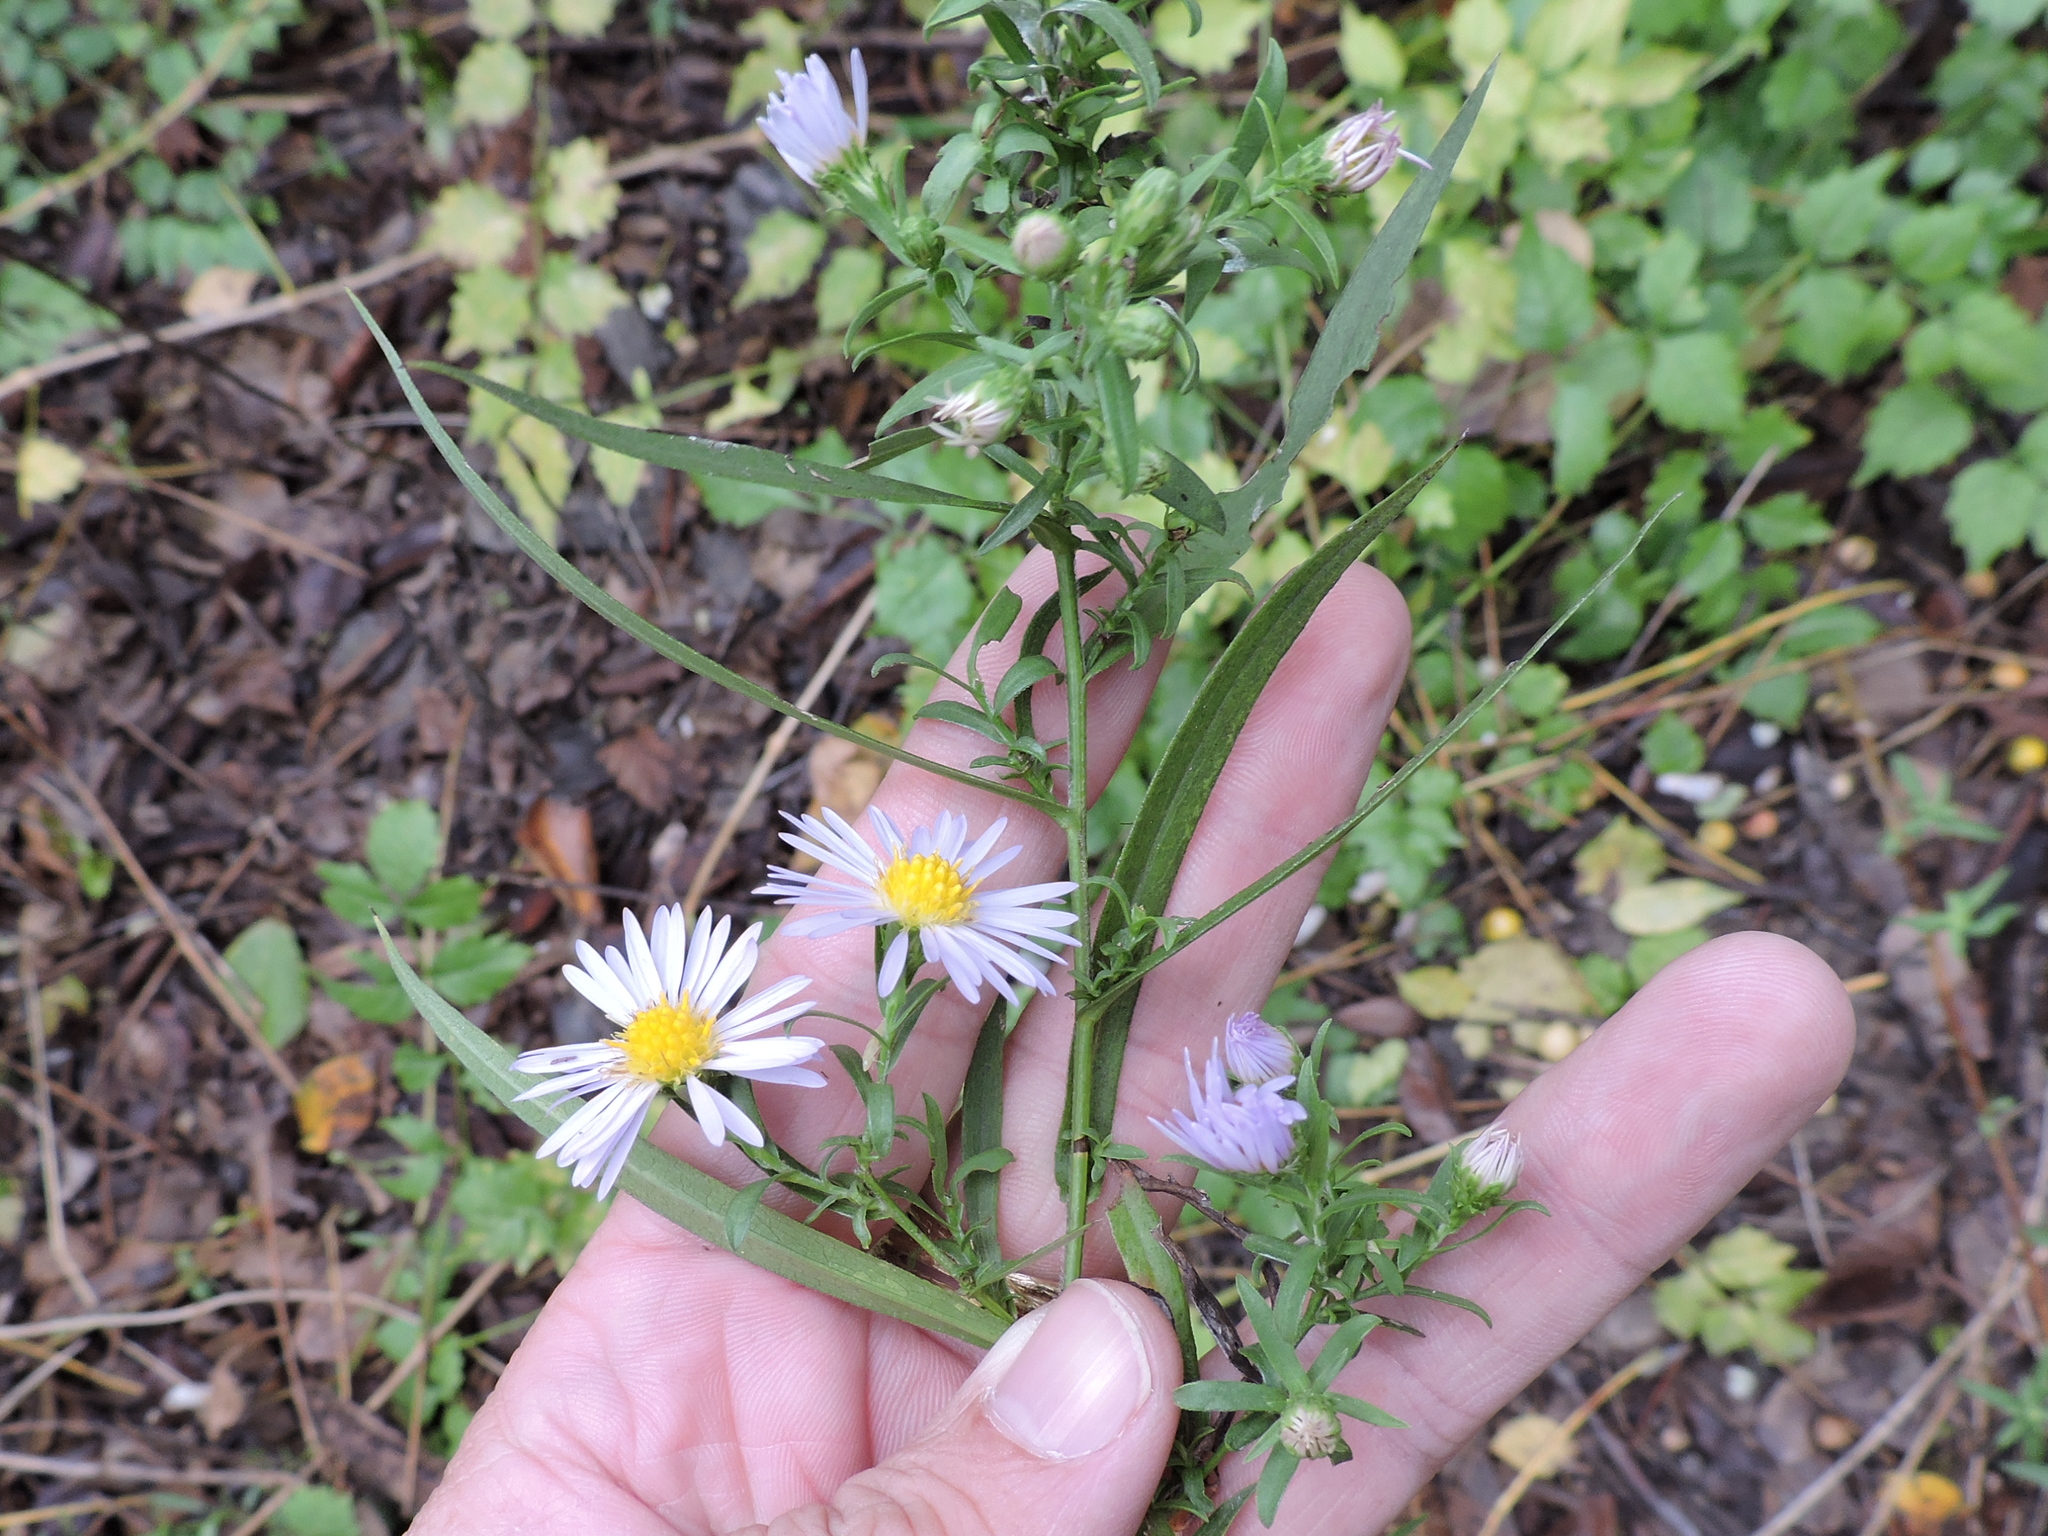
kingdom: Plantae
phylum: Tracheophyta
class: Magnoliopsida
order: Asterales
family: Asteraceae
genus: Symphyotrichum
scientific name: Symphyotrichum lanceolatum
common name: Panicled aster
